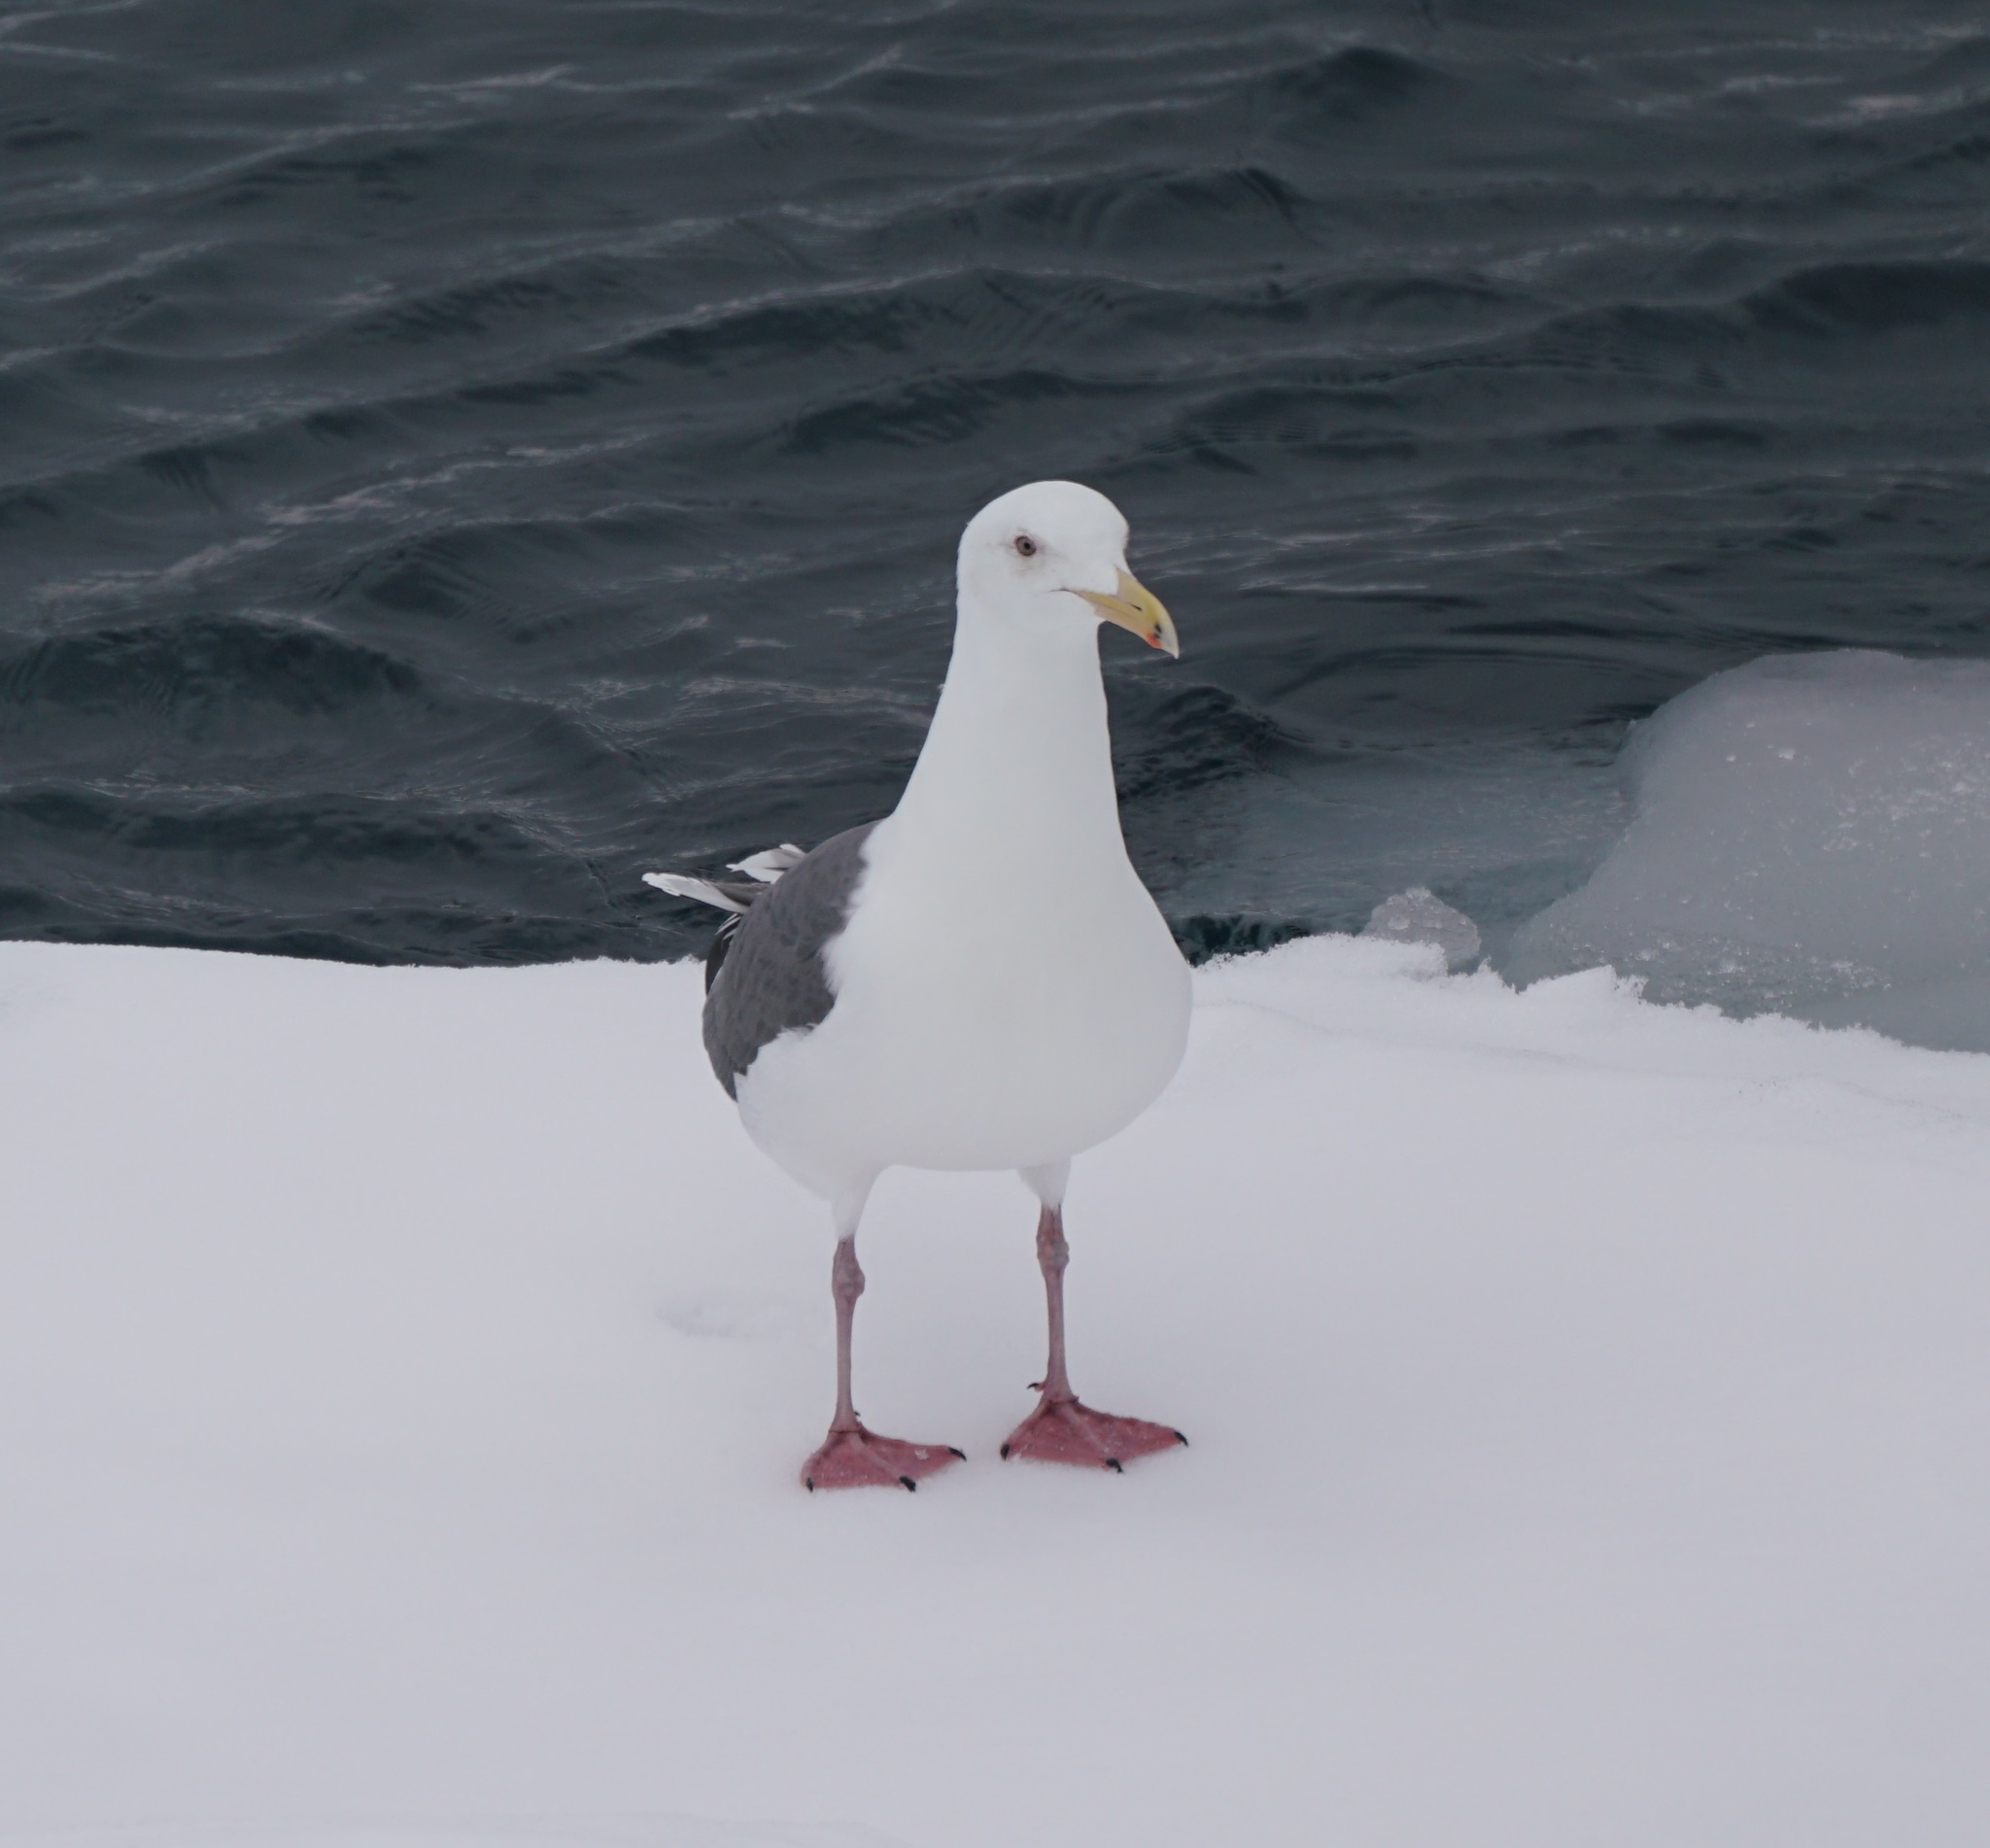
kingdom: Animalia
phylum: Chordata
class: Aves
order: Charadriiformes
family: Laridae
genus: Larus
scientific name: Larus schistisagus
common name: Slaty-backed gull
